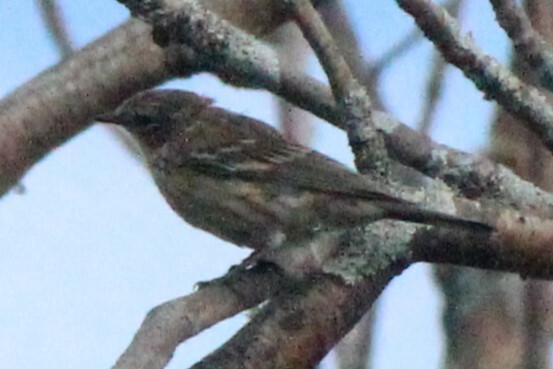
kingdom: Animalia
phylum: Chordata
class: Aves
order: Passeriformes
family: Parulidae
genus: Setophaga
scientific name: Setophaga coronata
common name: Myrtle warbler
